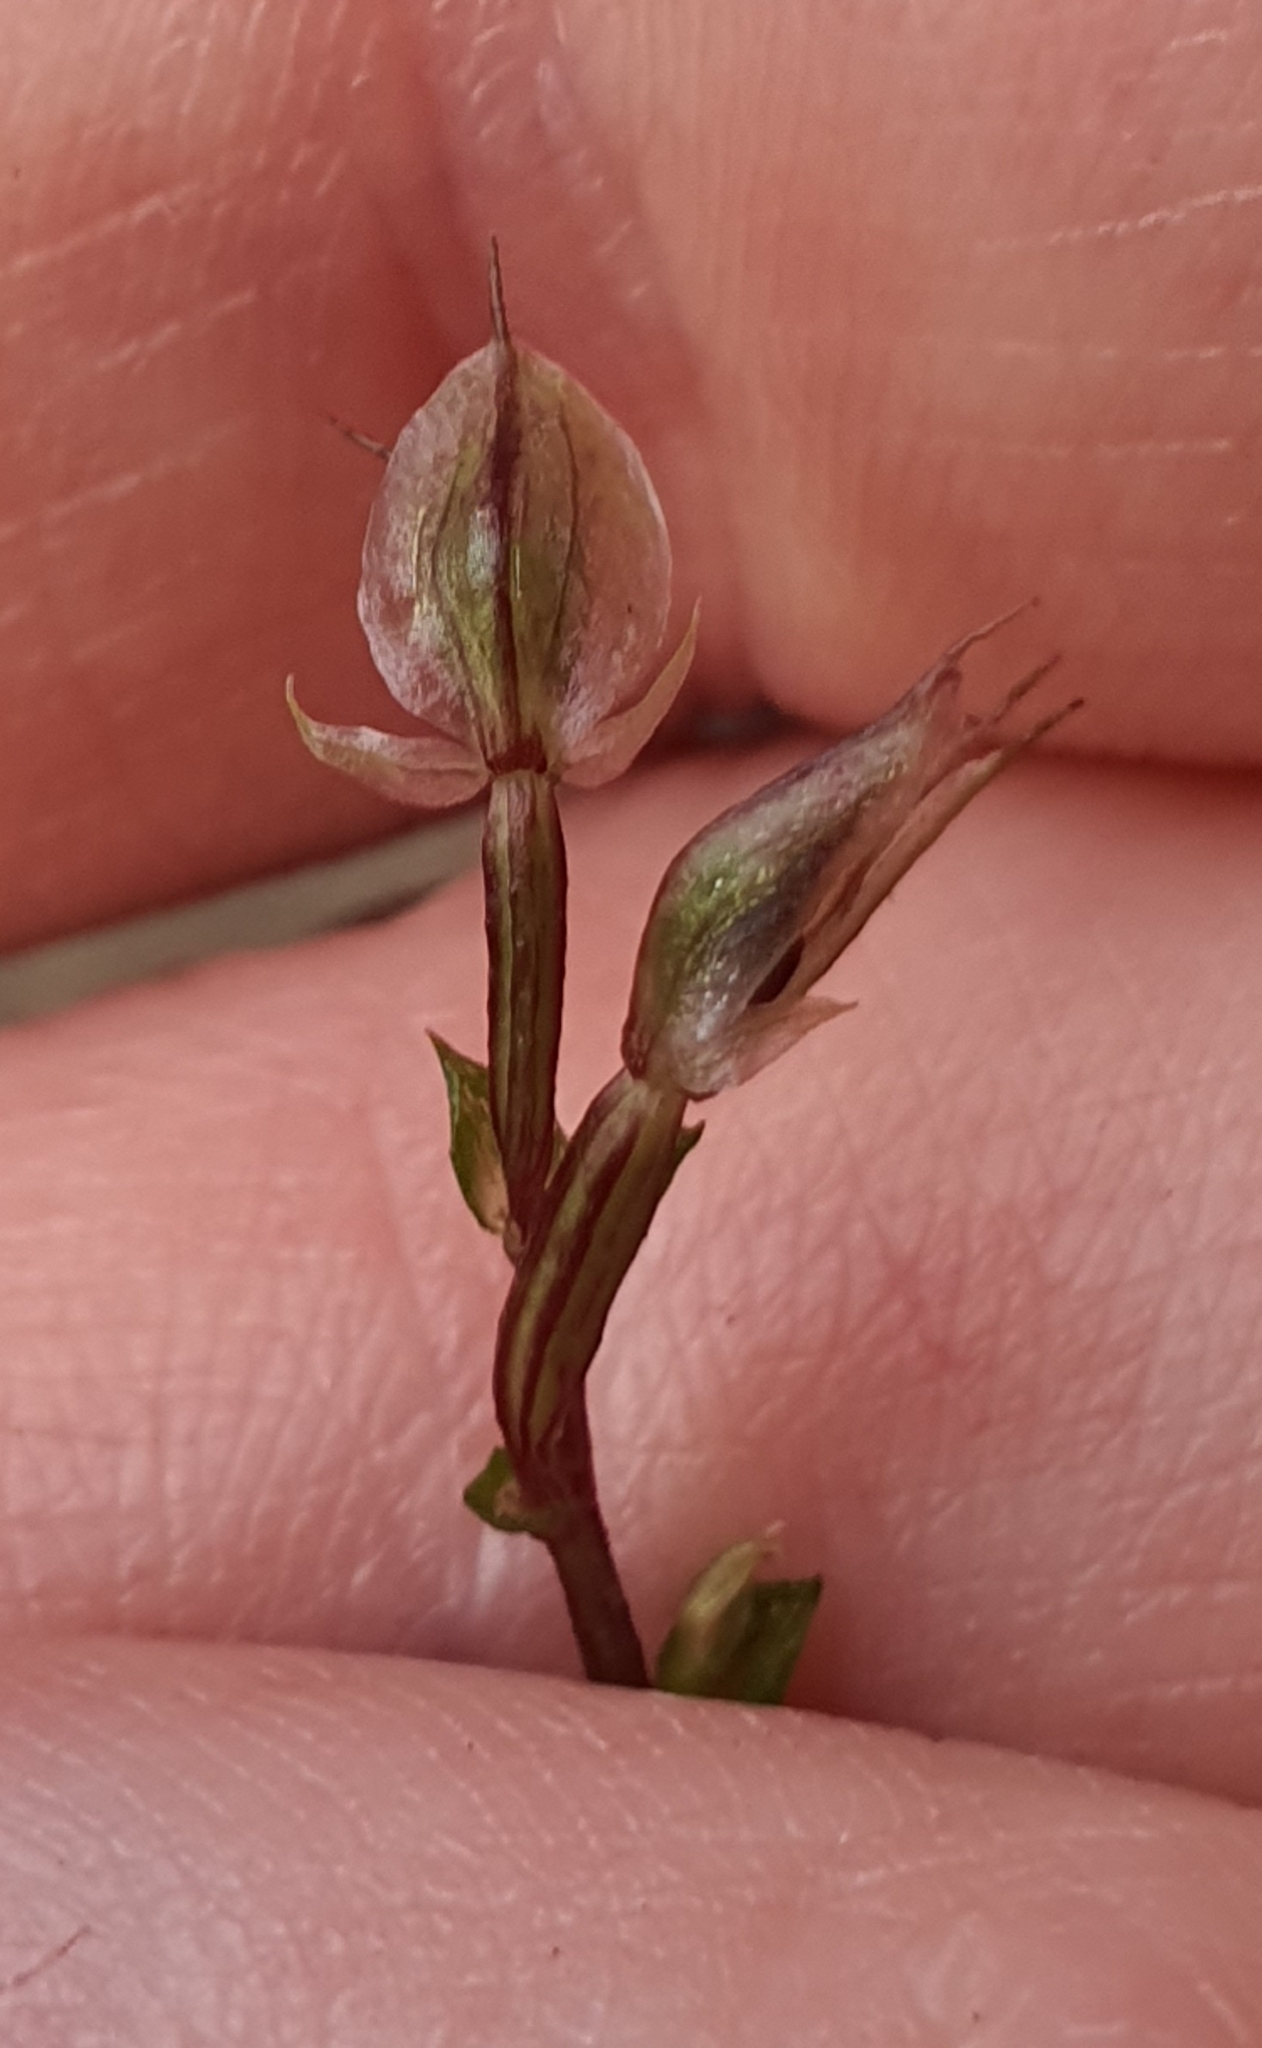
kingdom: Plantae
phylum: Tracheophyta
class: Liliopsida
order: Asparagales
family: Orchidaceae
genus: Acianthus
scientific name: Acianthus sinclairii
